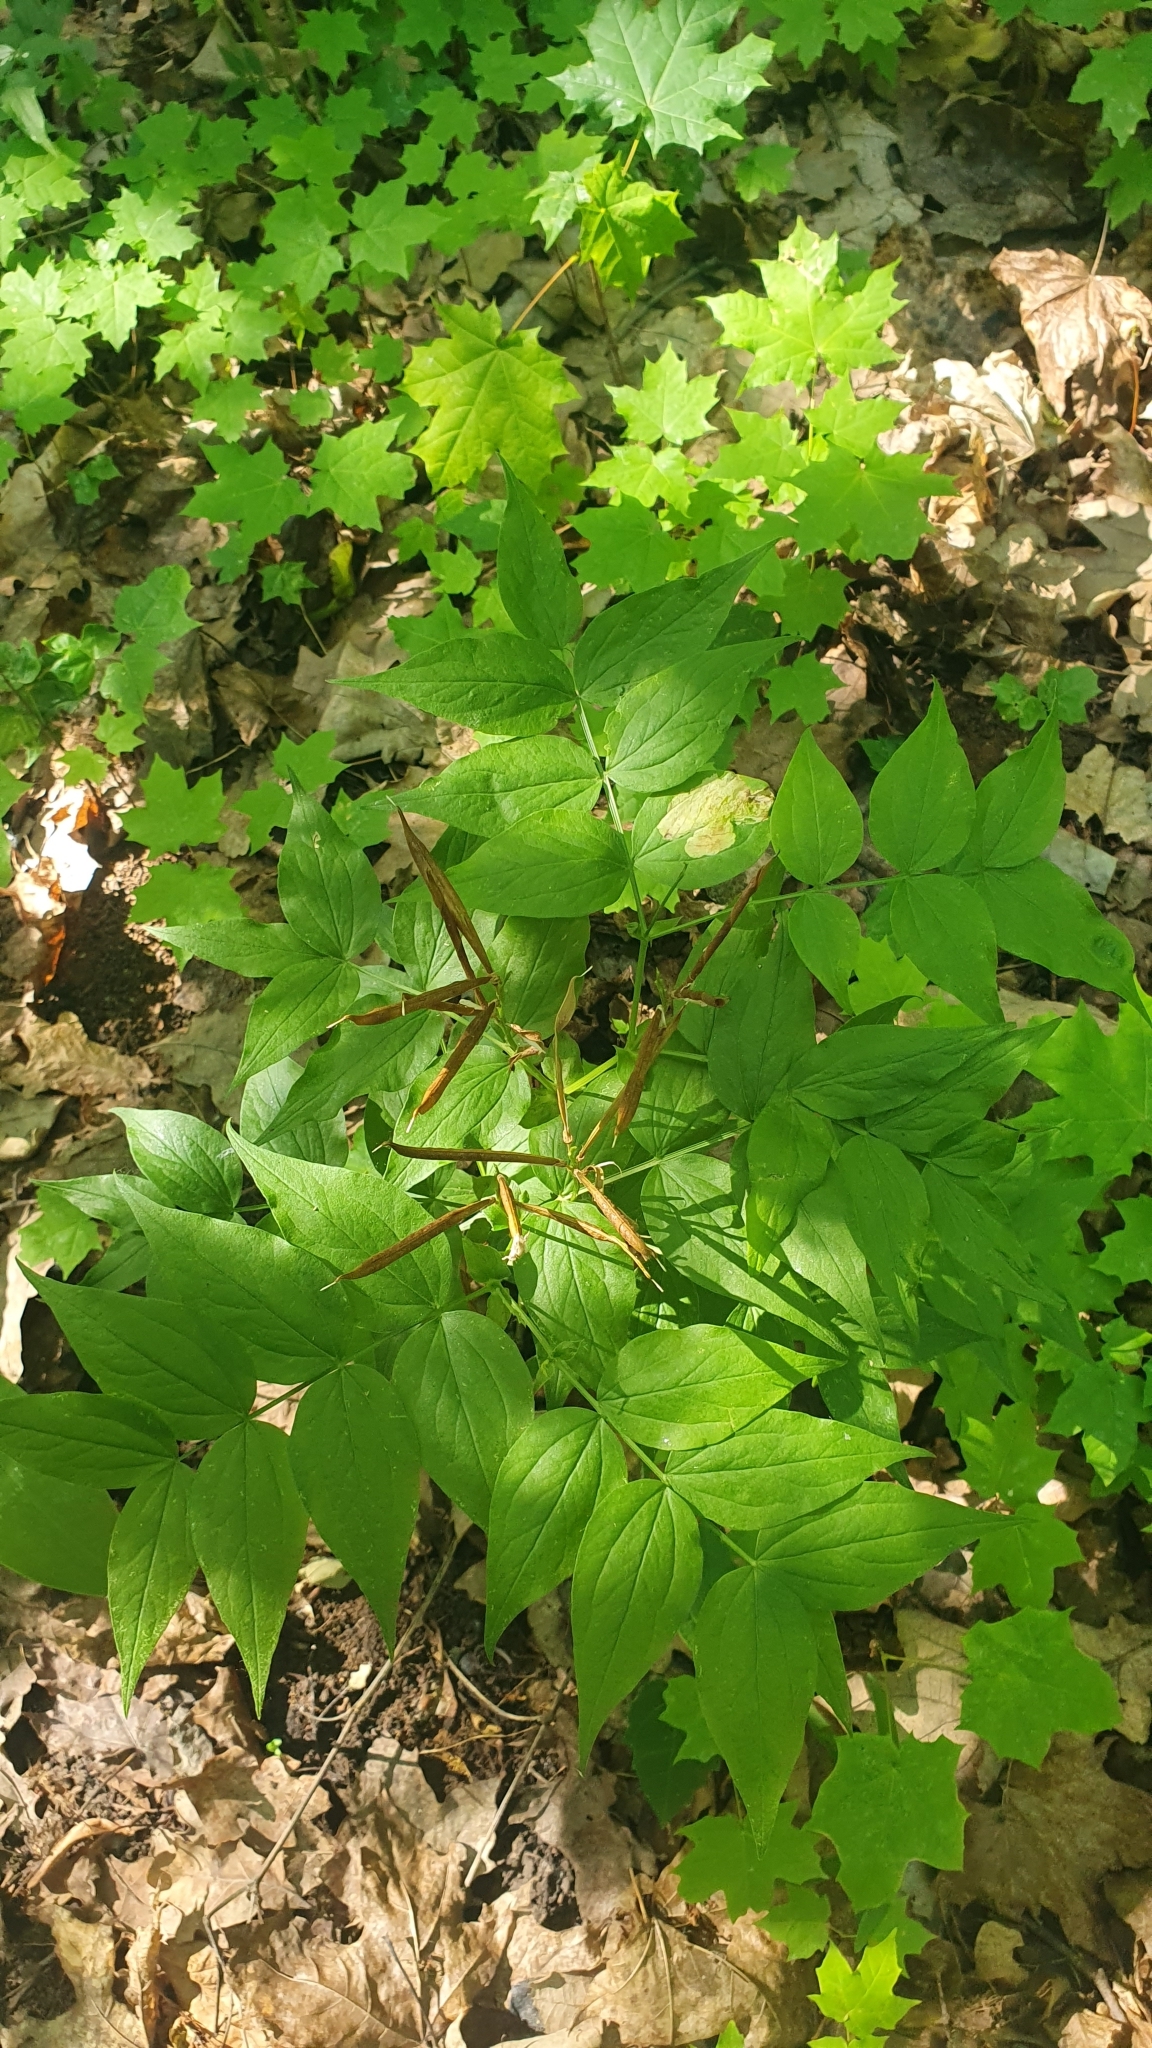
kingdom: Plantae
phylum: Tracheophyta
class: Magnoliopsida
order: Fabales
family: Fabaceae
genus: Lathyrus
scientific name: Lathyrus vernus
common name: Spring pea
